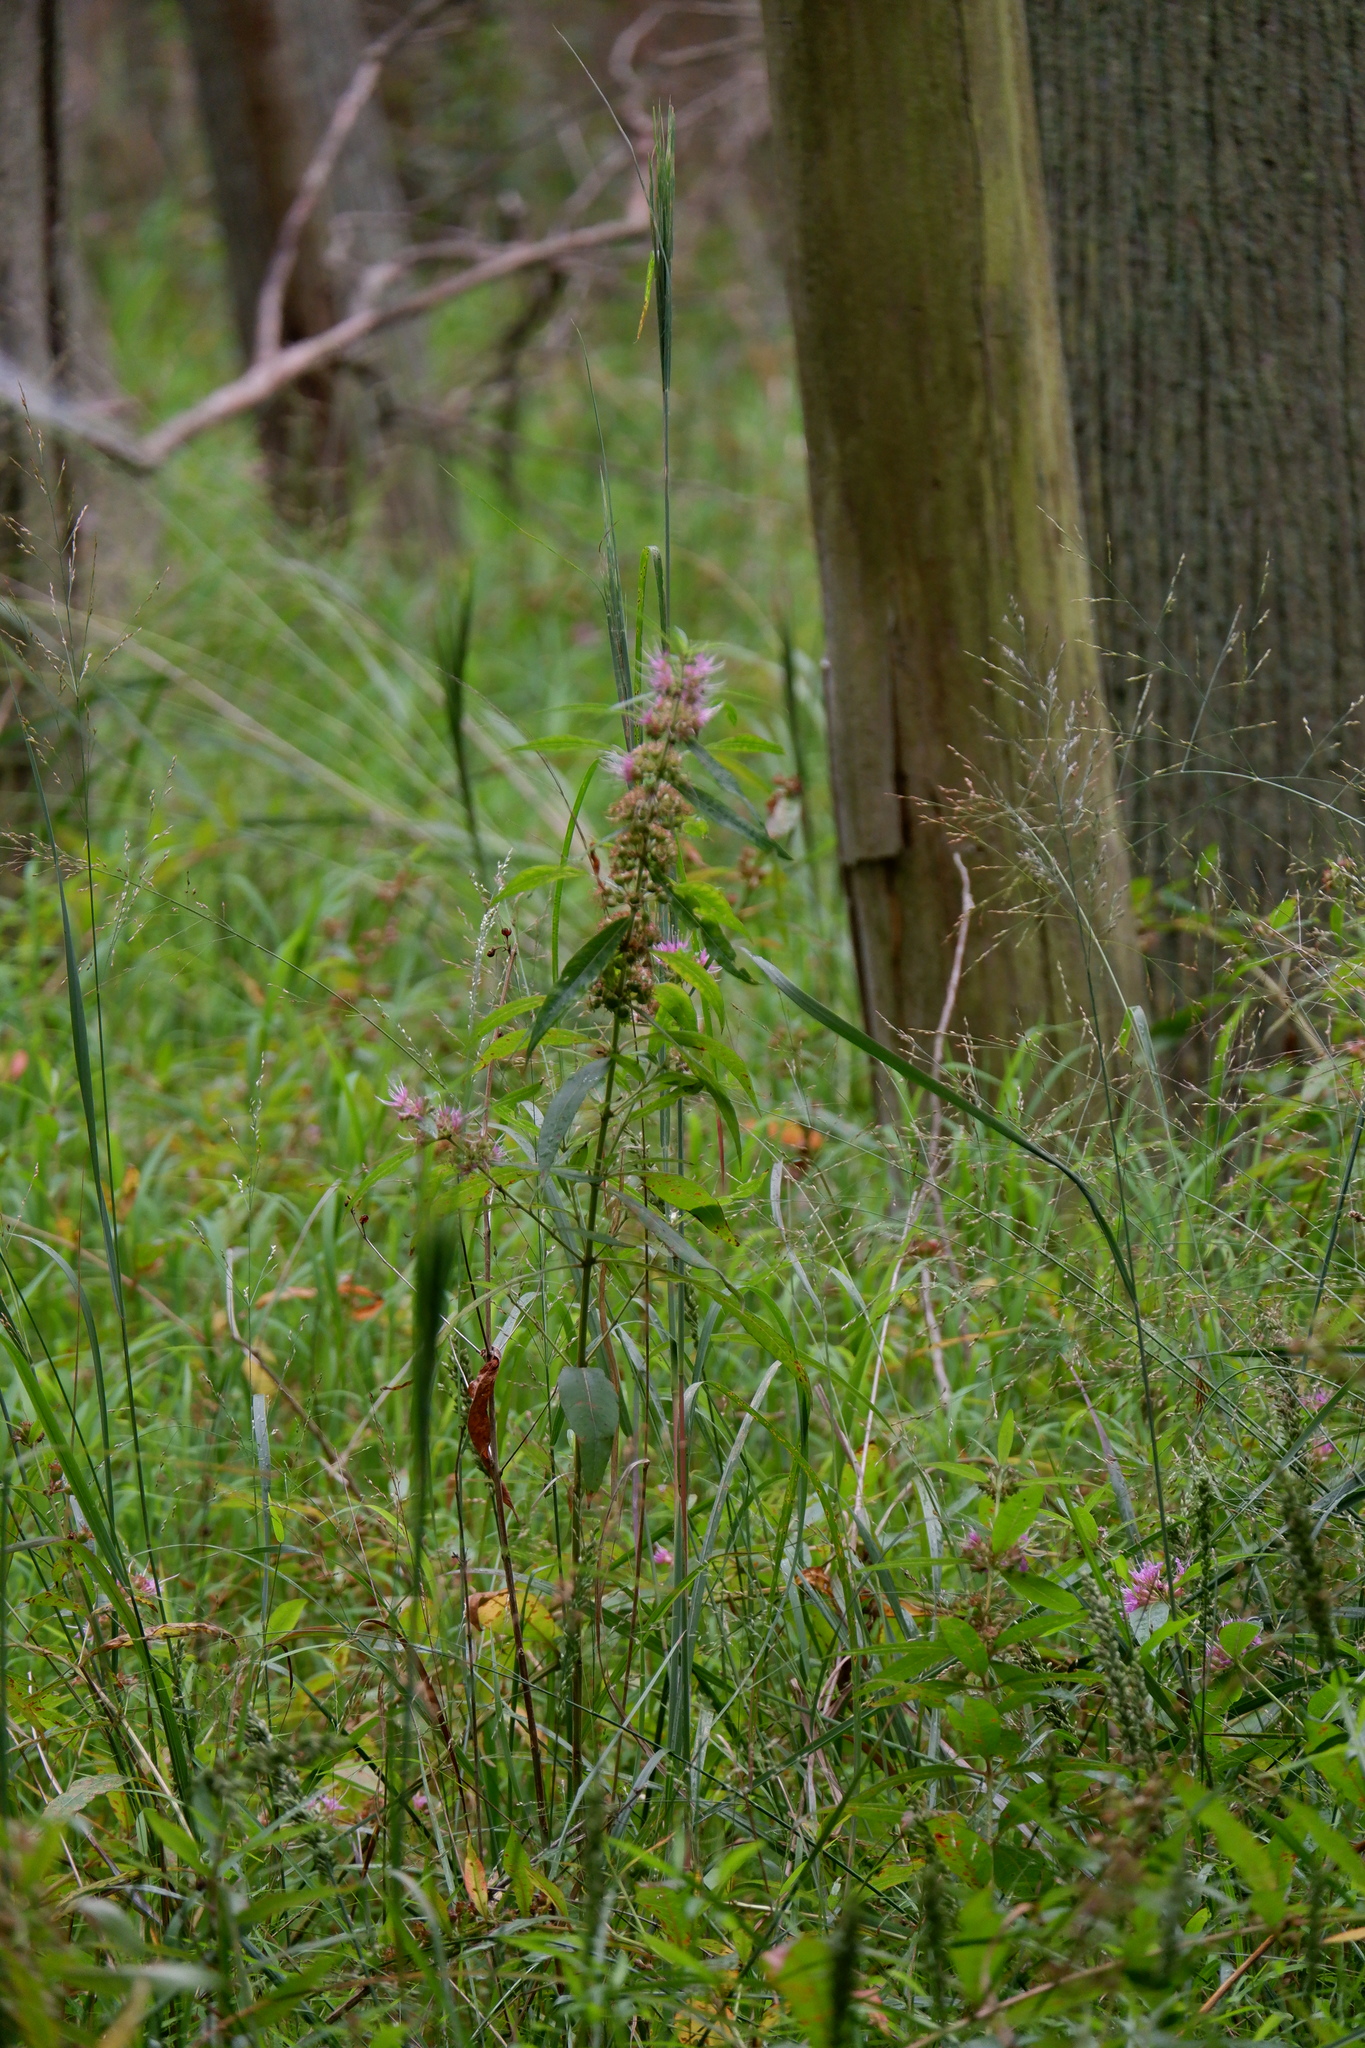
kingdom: Plantae
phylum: Tracheophyta
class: Magnoliopsida
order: Myrtales
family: Lythraceae
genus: Decodon
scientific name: Decodon verticillatus
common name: Hairy swamp loosestrife
